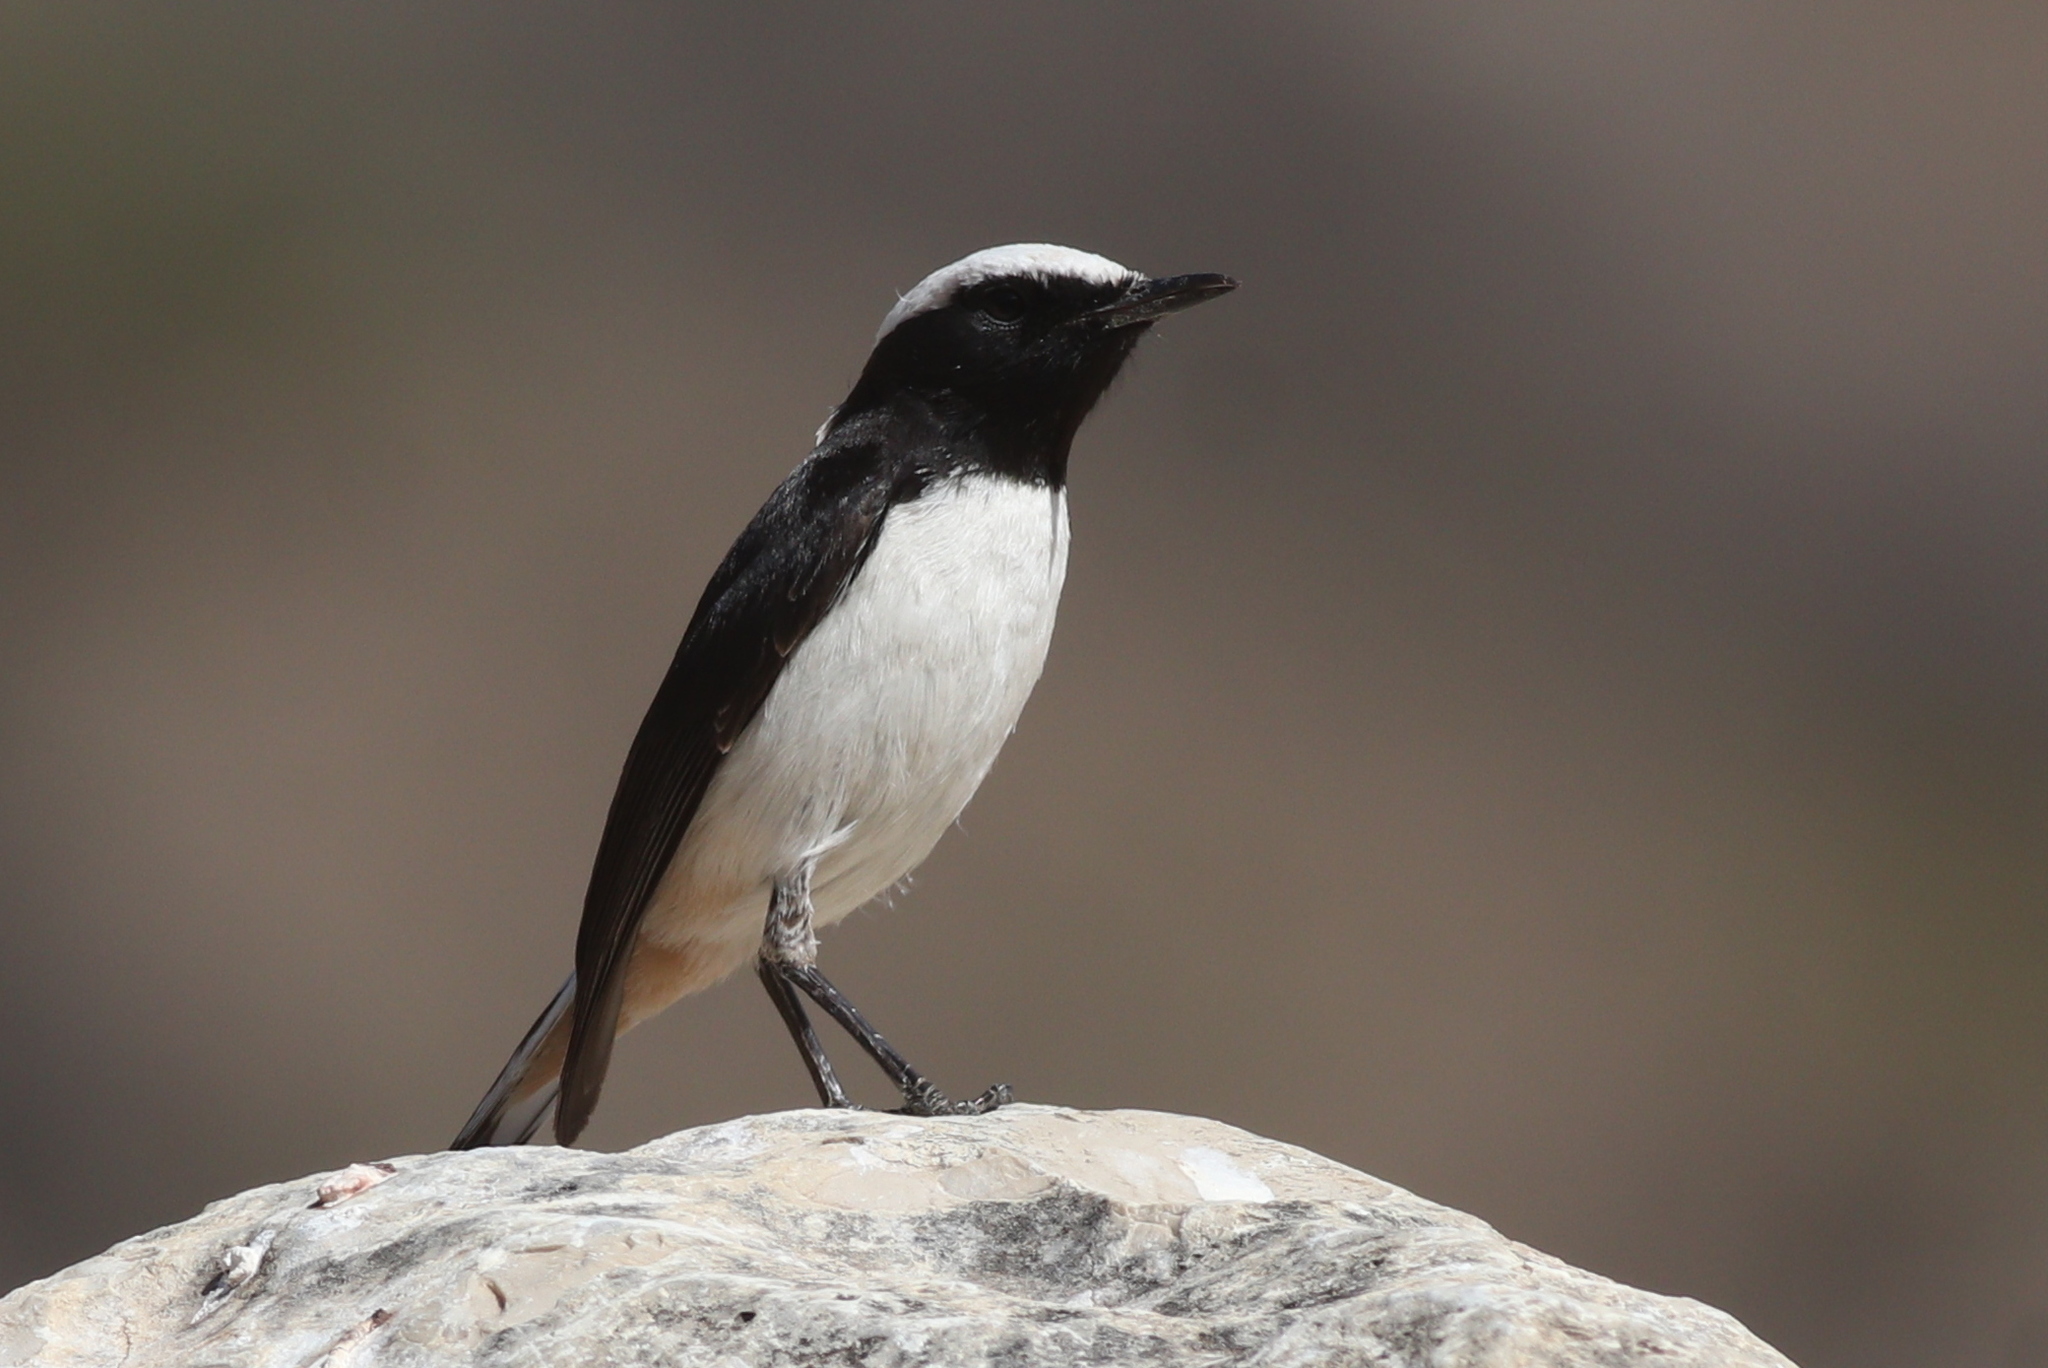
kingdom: Animalia
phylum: Chordata
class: Aves
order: Passeriformes
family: Muscicapidae
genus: Oenanthe
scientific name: Oenanthe lugentoides
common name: Arabian wheatear
